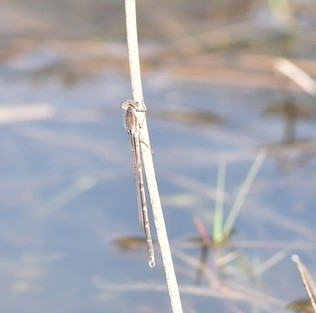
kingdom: Animalia
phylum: Arthropoda
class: Insecta
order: Odonata
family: Lestidae
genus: Sympecma
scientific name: Sympecma fusca
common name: Common winter damsel
